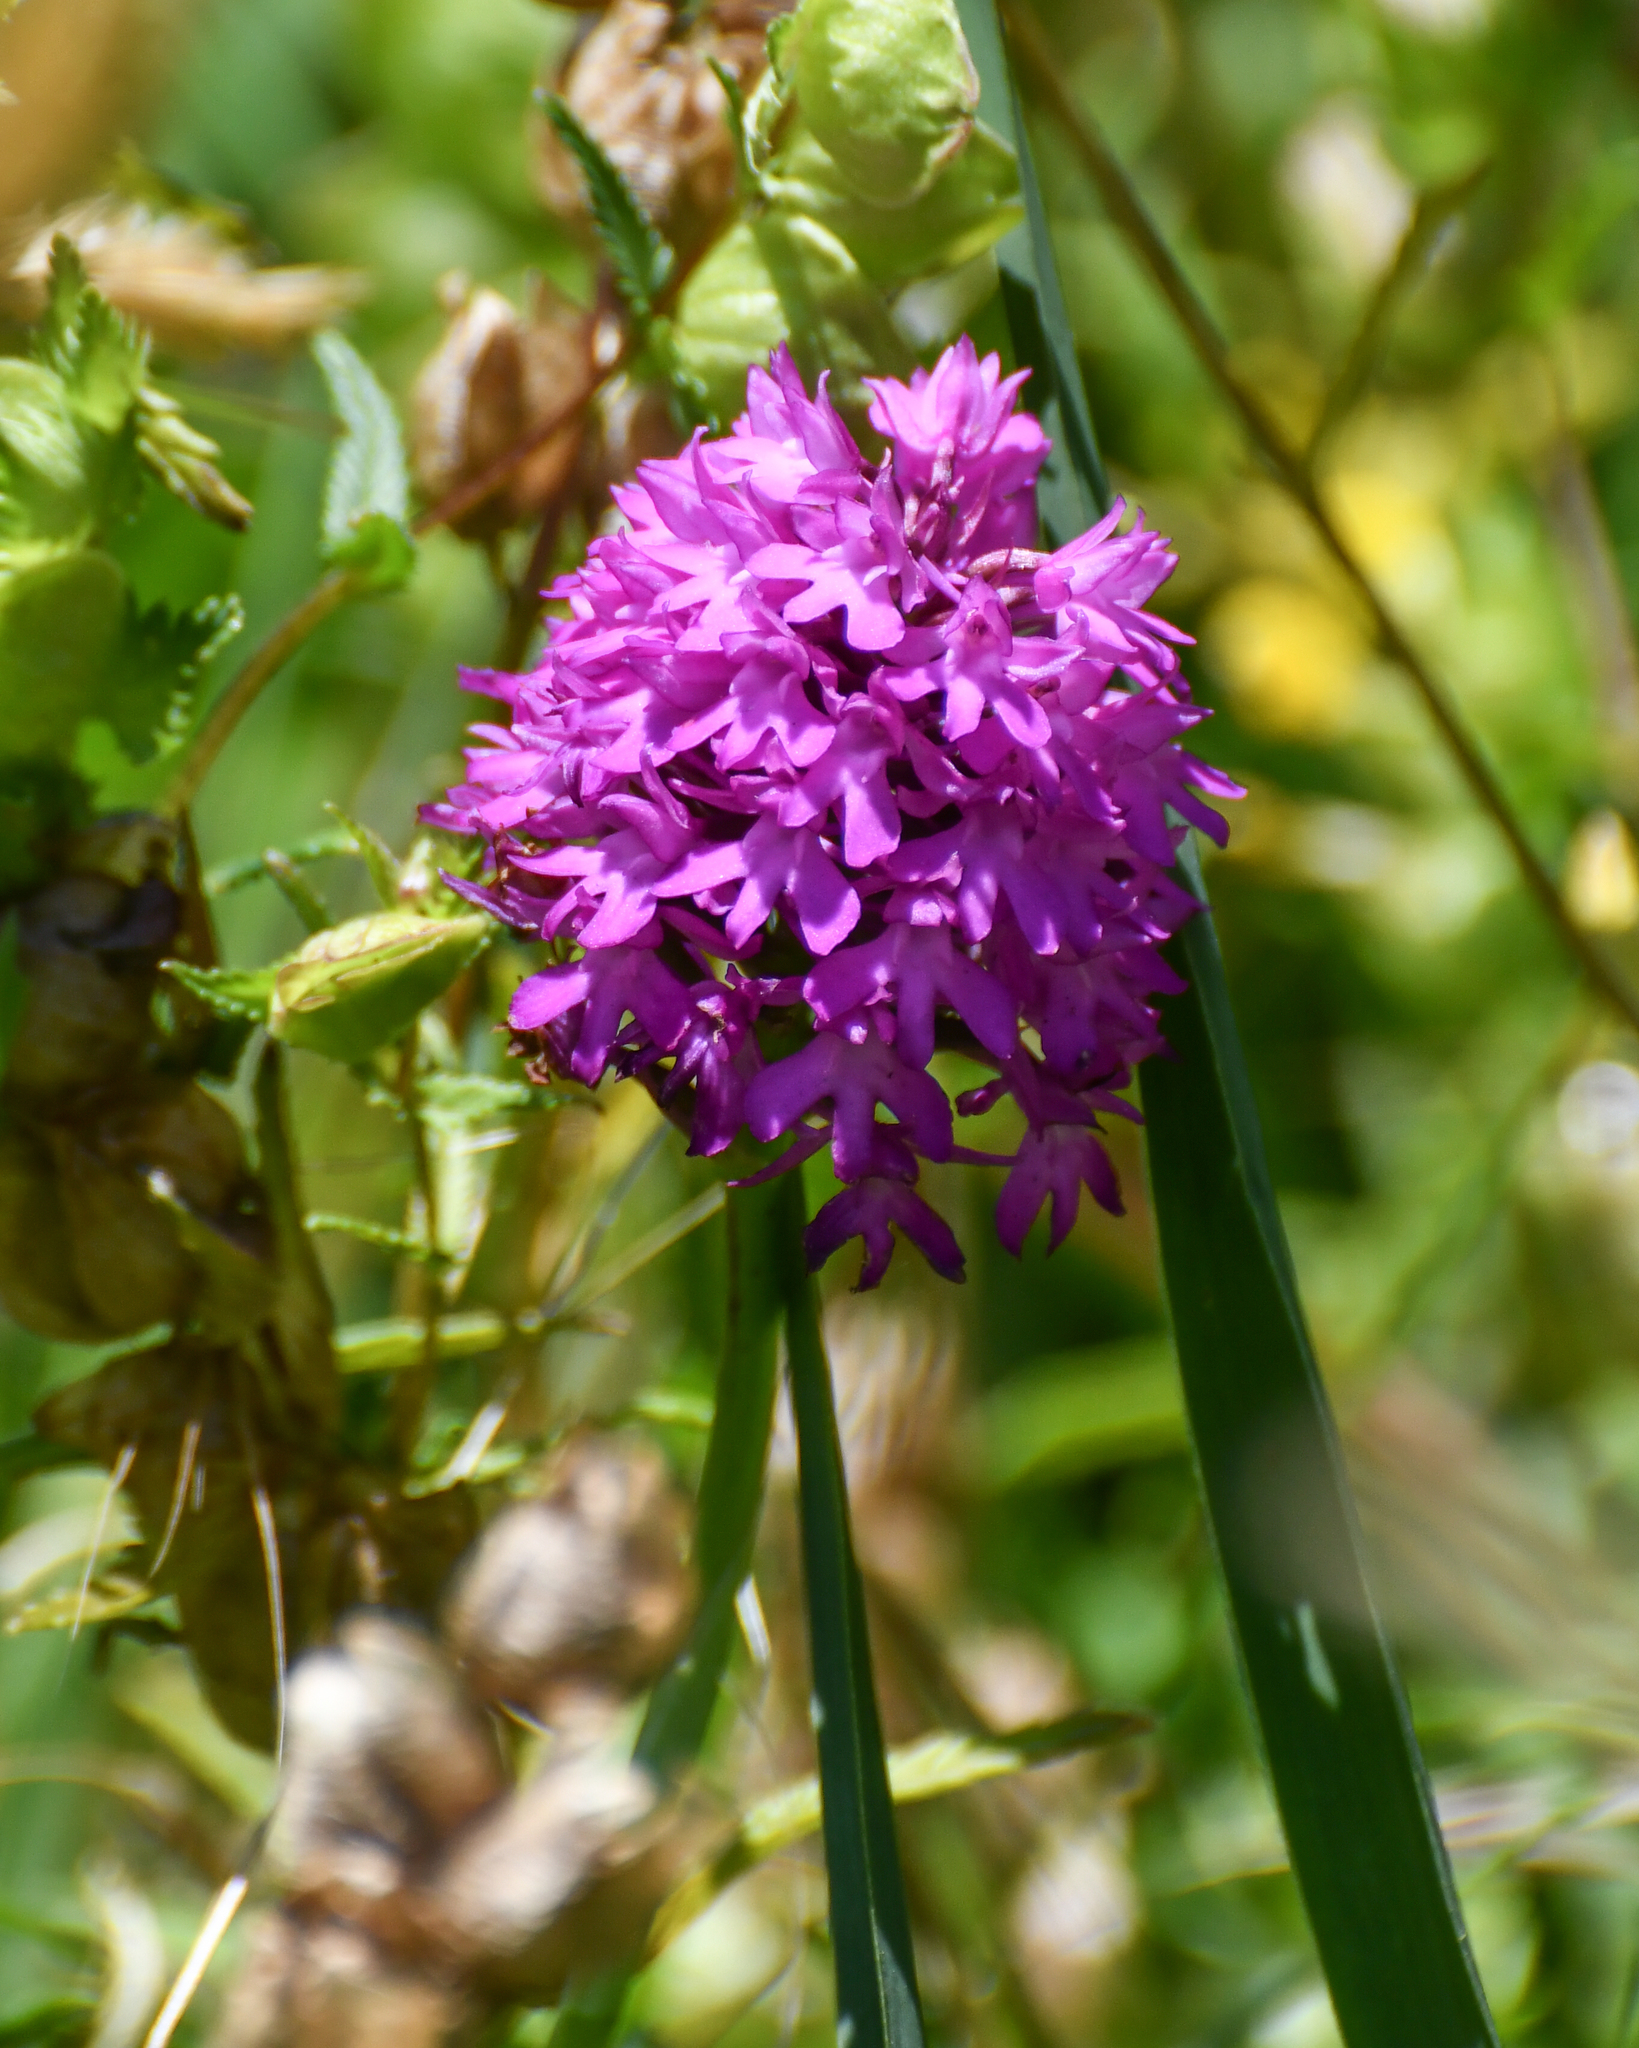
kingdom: Plantae
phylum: Tracheophyta
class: Liliopsida
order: Asparagales
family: Orchidaceae
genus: Anacamptis
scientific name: Anacamptis pyramidalis
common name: Pyramidal orchid
